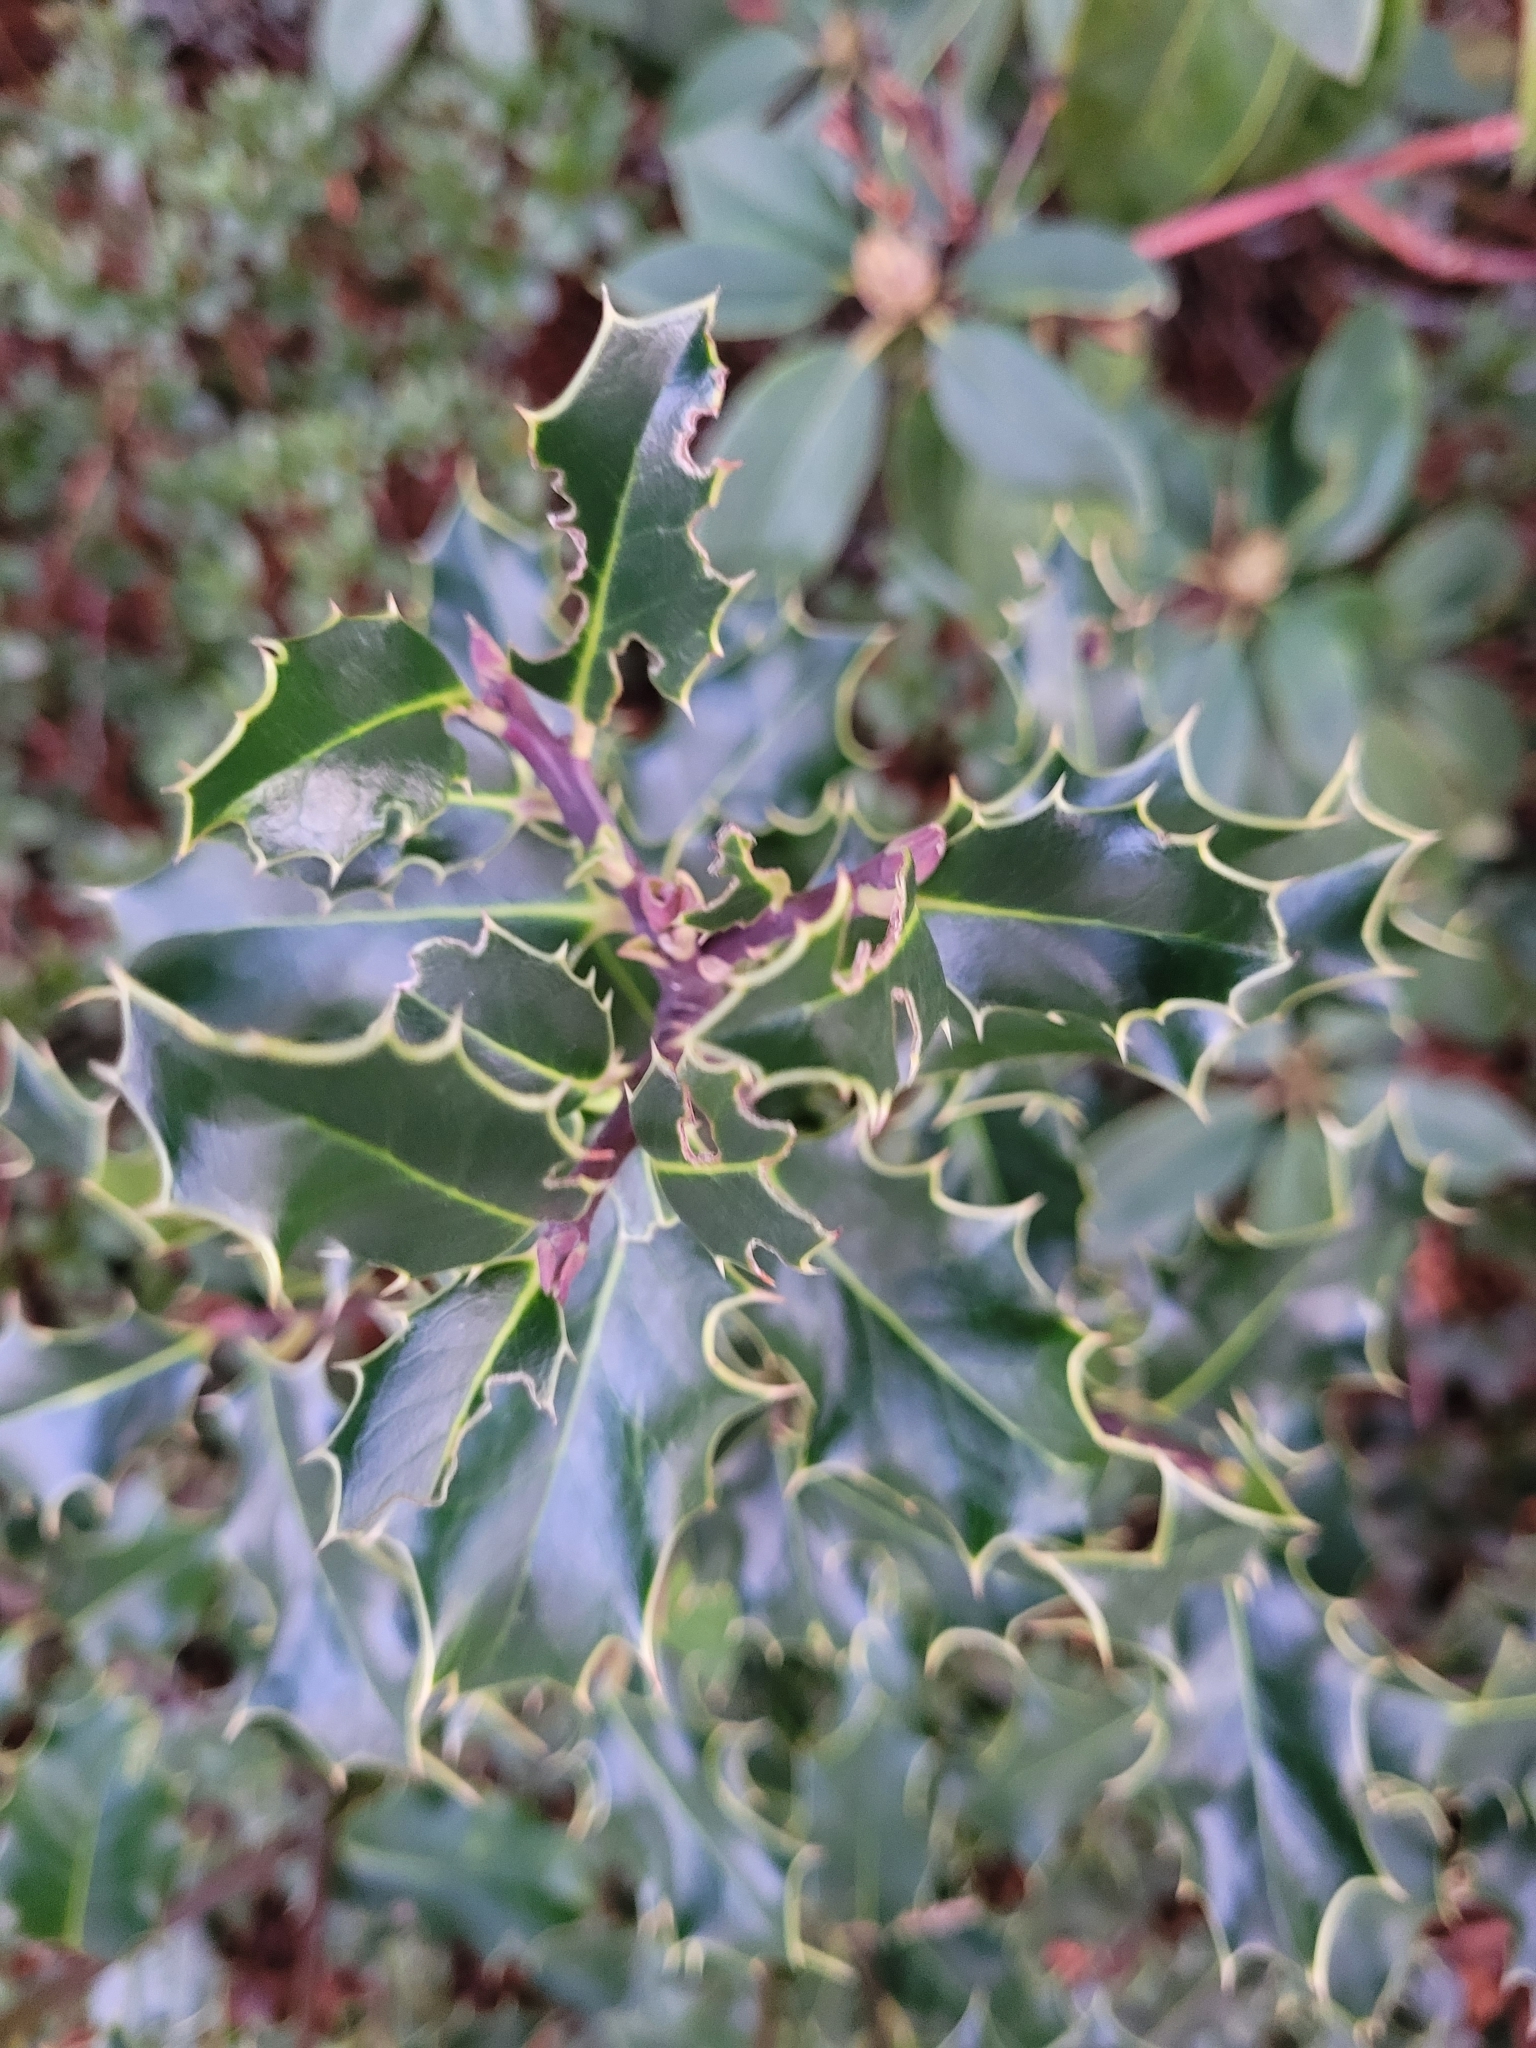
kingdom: Plantae
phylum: Tracheophyta
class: Magnoliopsida
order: Aquifoliales
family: Aquifoliaceae
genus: Ilex
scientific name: Ilex aquifolium
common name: English holly
